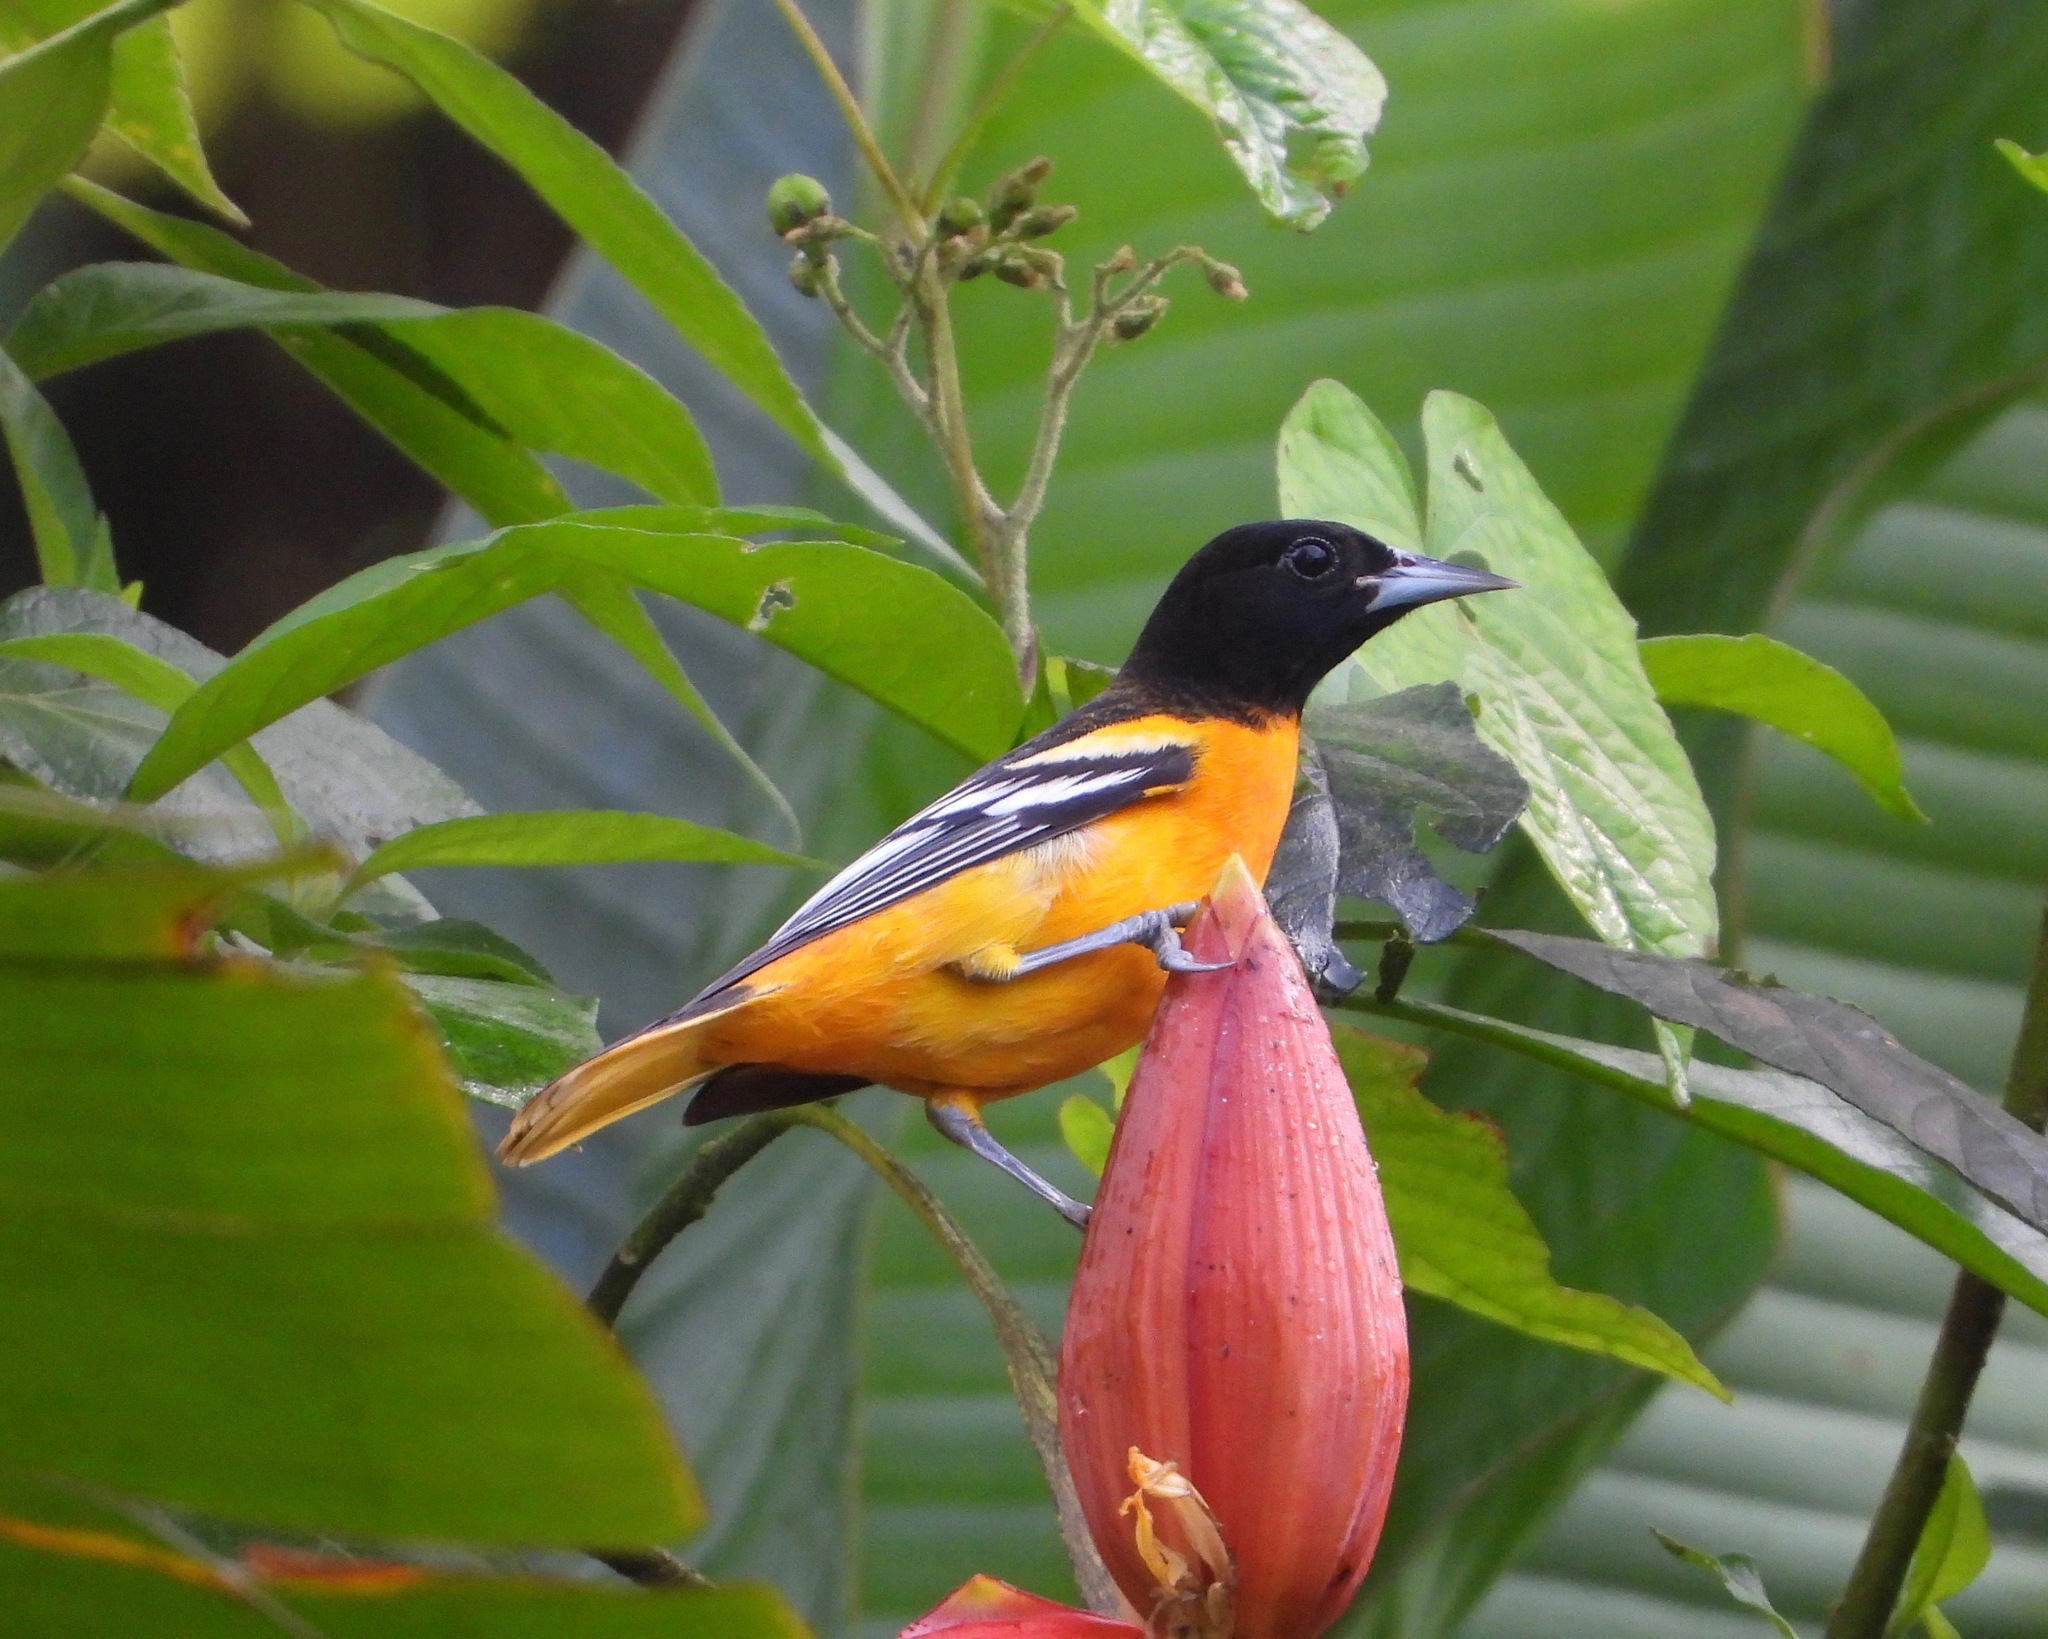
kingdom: Animalia
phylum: Chordata
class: Aves
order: Passeriformes
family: Icteridae
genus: Icterus
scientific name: Icterus galbula
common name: Baltimore oriole
